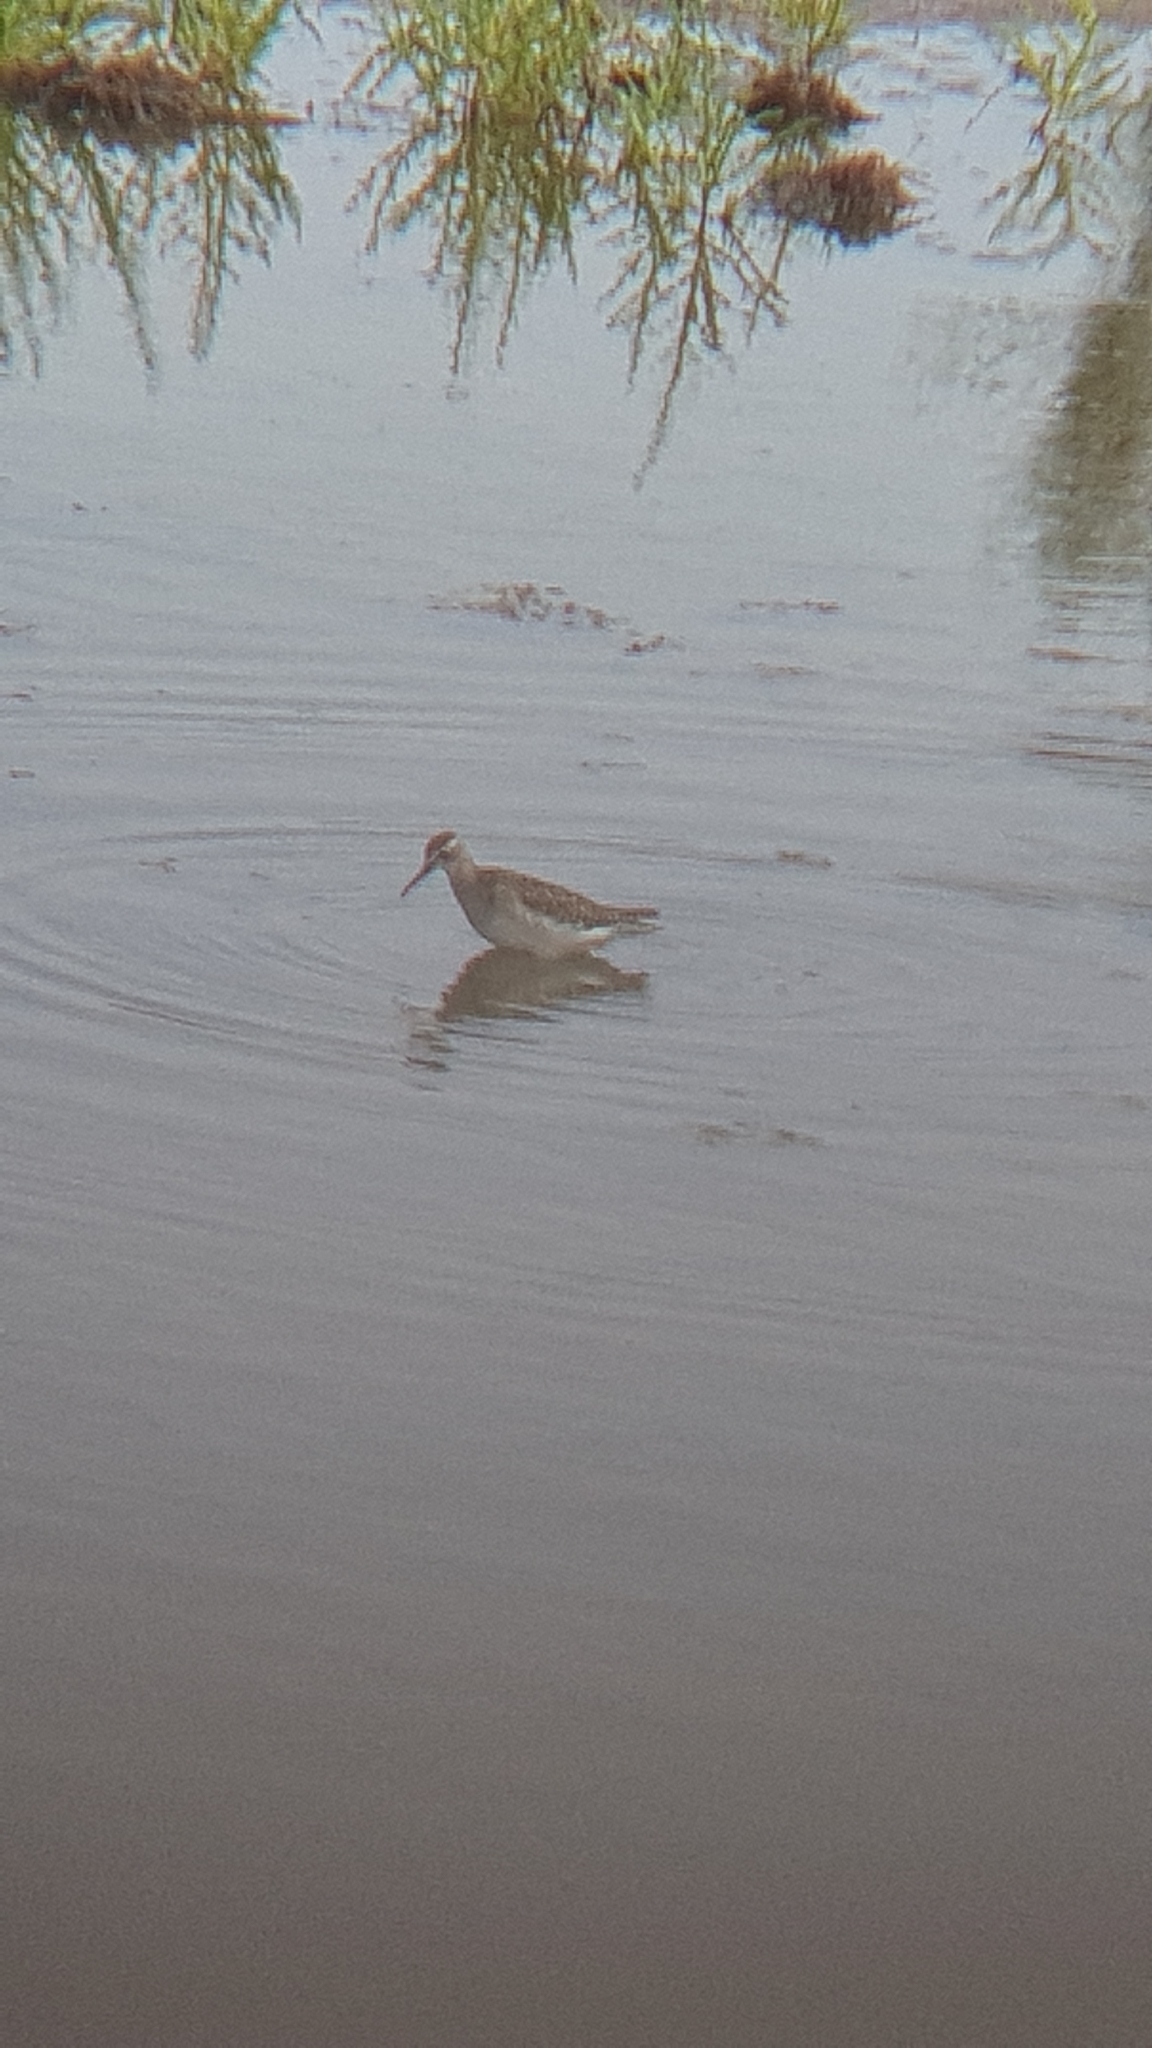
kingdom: Animalia
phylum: Chordata
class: Aves
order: Charadriiformes
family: Scolopacidae
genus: Tringa
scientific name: Tringa glareola
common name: Wood sandpiper
